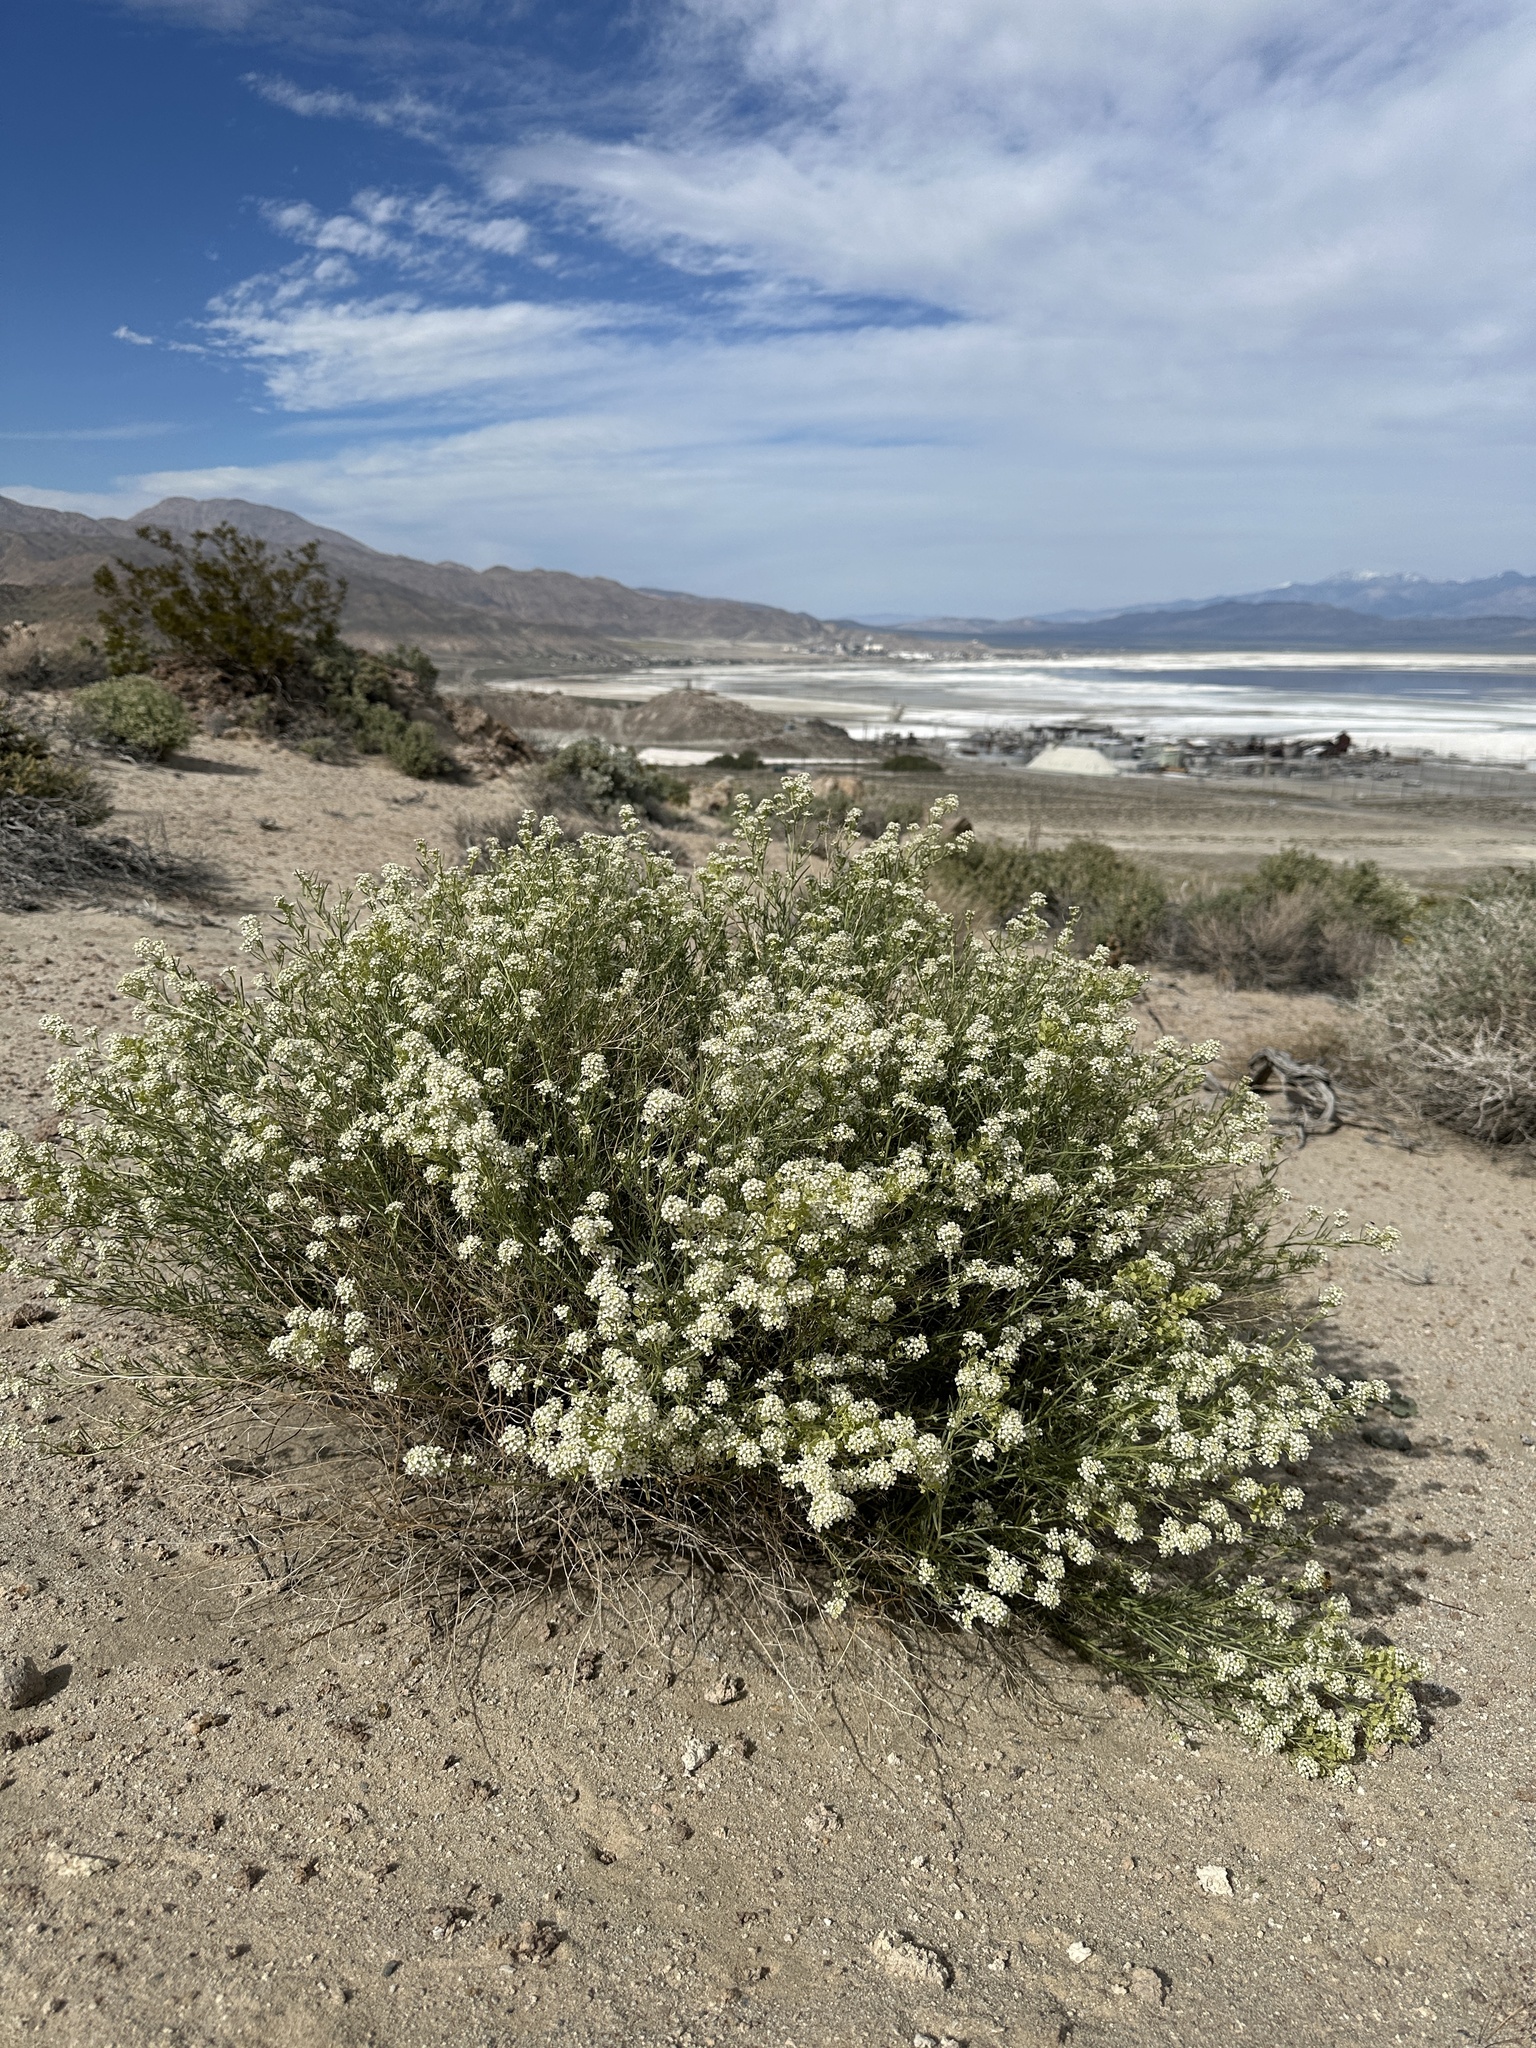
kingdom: Plantae
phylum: Tracheophyta
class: Magnoliopsida
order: Brassicales
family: Brassicaceae
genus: Lepidium
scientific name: Lepidium fremontii
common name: Fremont's pepperwort
